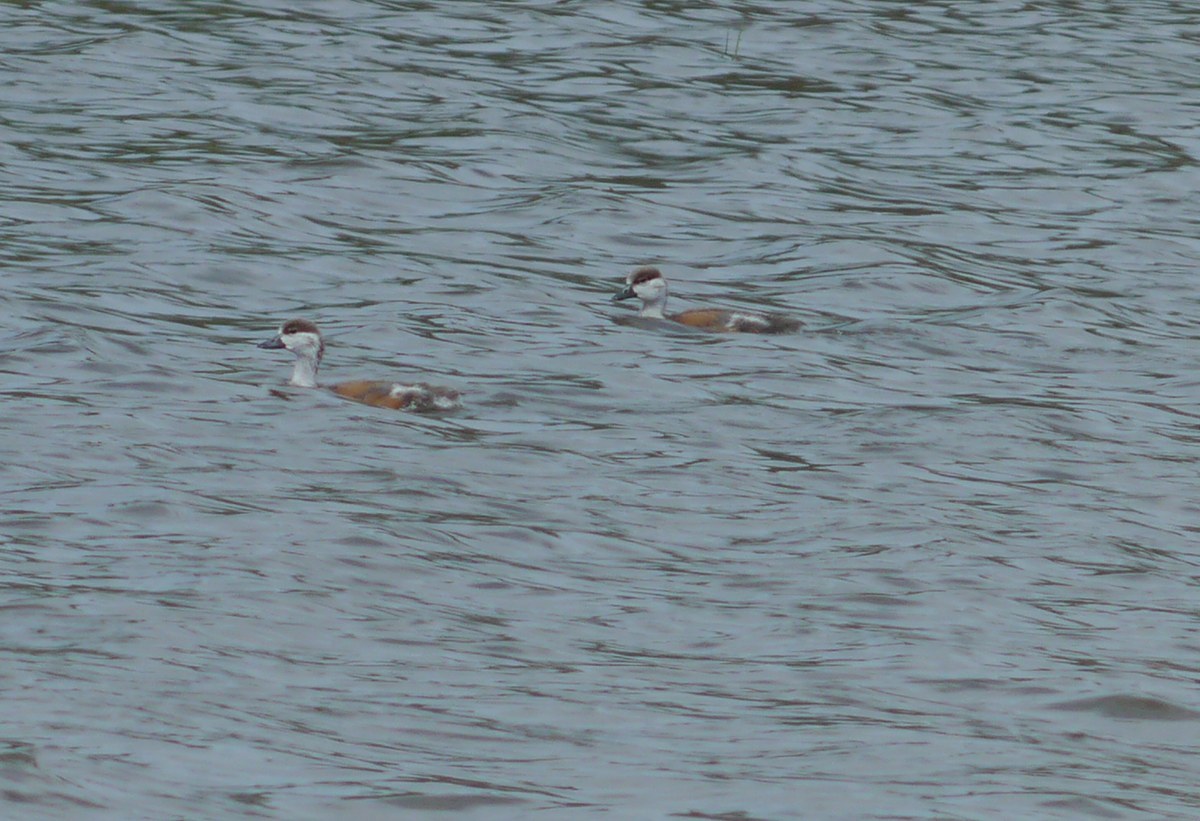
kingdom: Animalia
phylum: Chordata
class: Aves
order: Anseriformes
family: Anatidae
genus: Tadorna
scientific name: Tadorna ferruginea
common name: Ruddy shelduck
